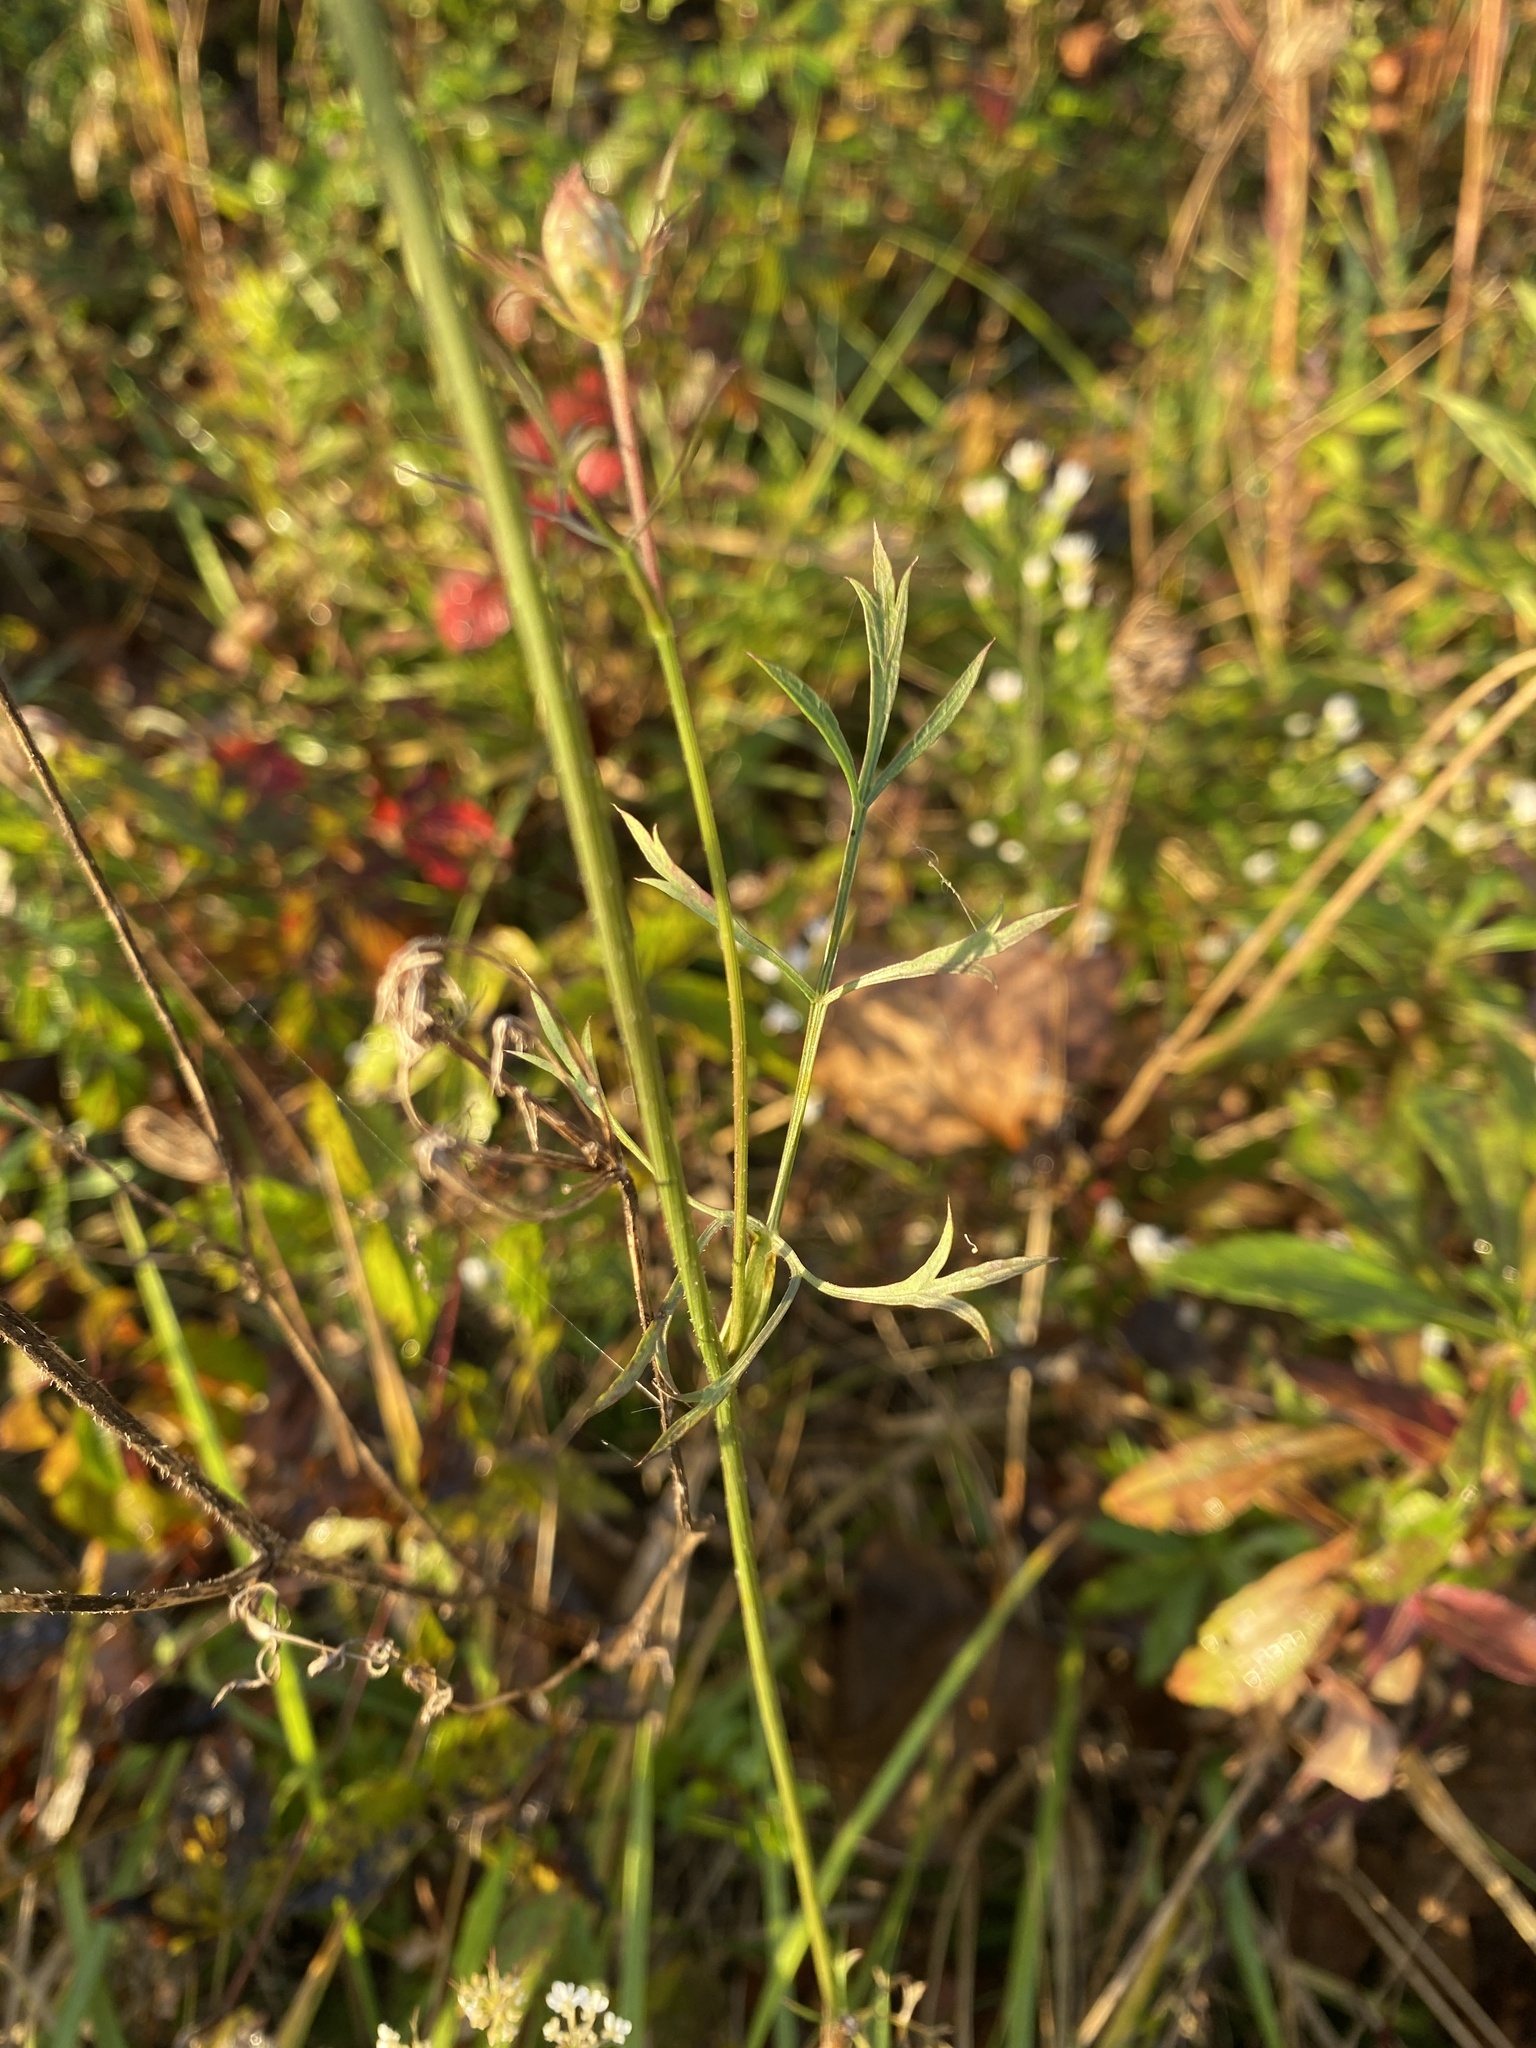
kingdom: Plantae
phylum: Tracheophyta
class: Magnoliopsida
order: Apiales
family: Apiaceae
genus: Daucus
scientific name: Daucus carota
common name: Wild carrot
